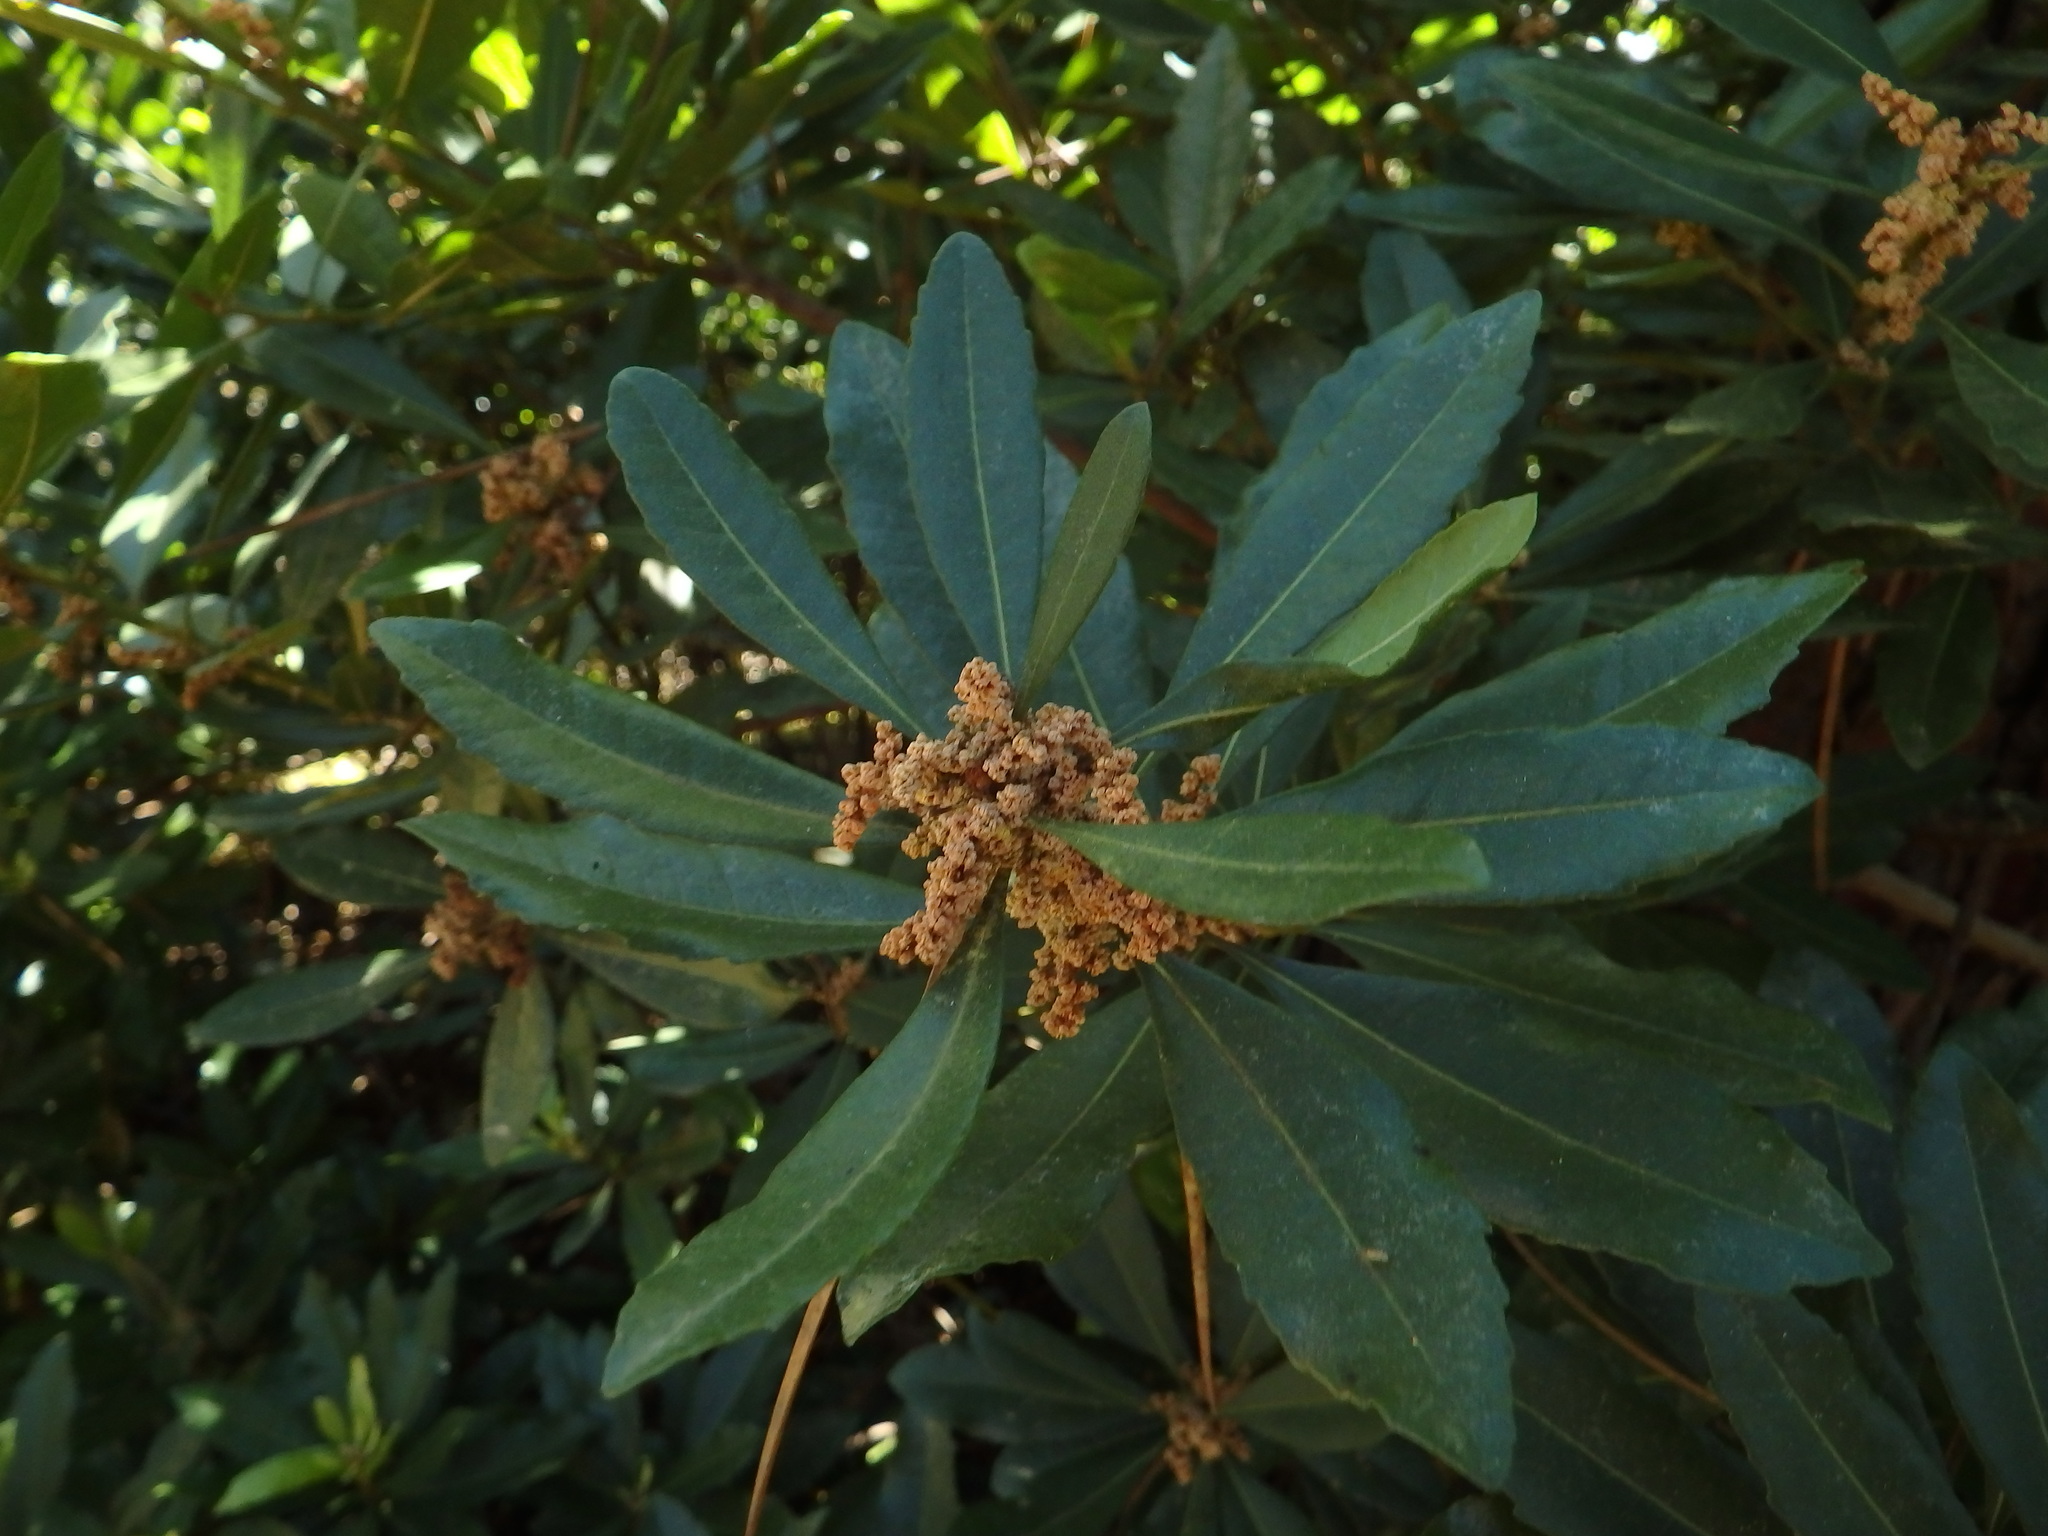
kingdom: Plantae
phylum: Tracheophyta
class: Magnoliopsida
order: Fagales
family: Myricaceae
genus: Morella
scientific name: Morella faya
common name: Firetree
